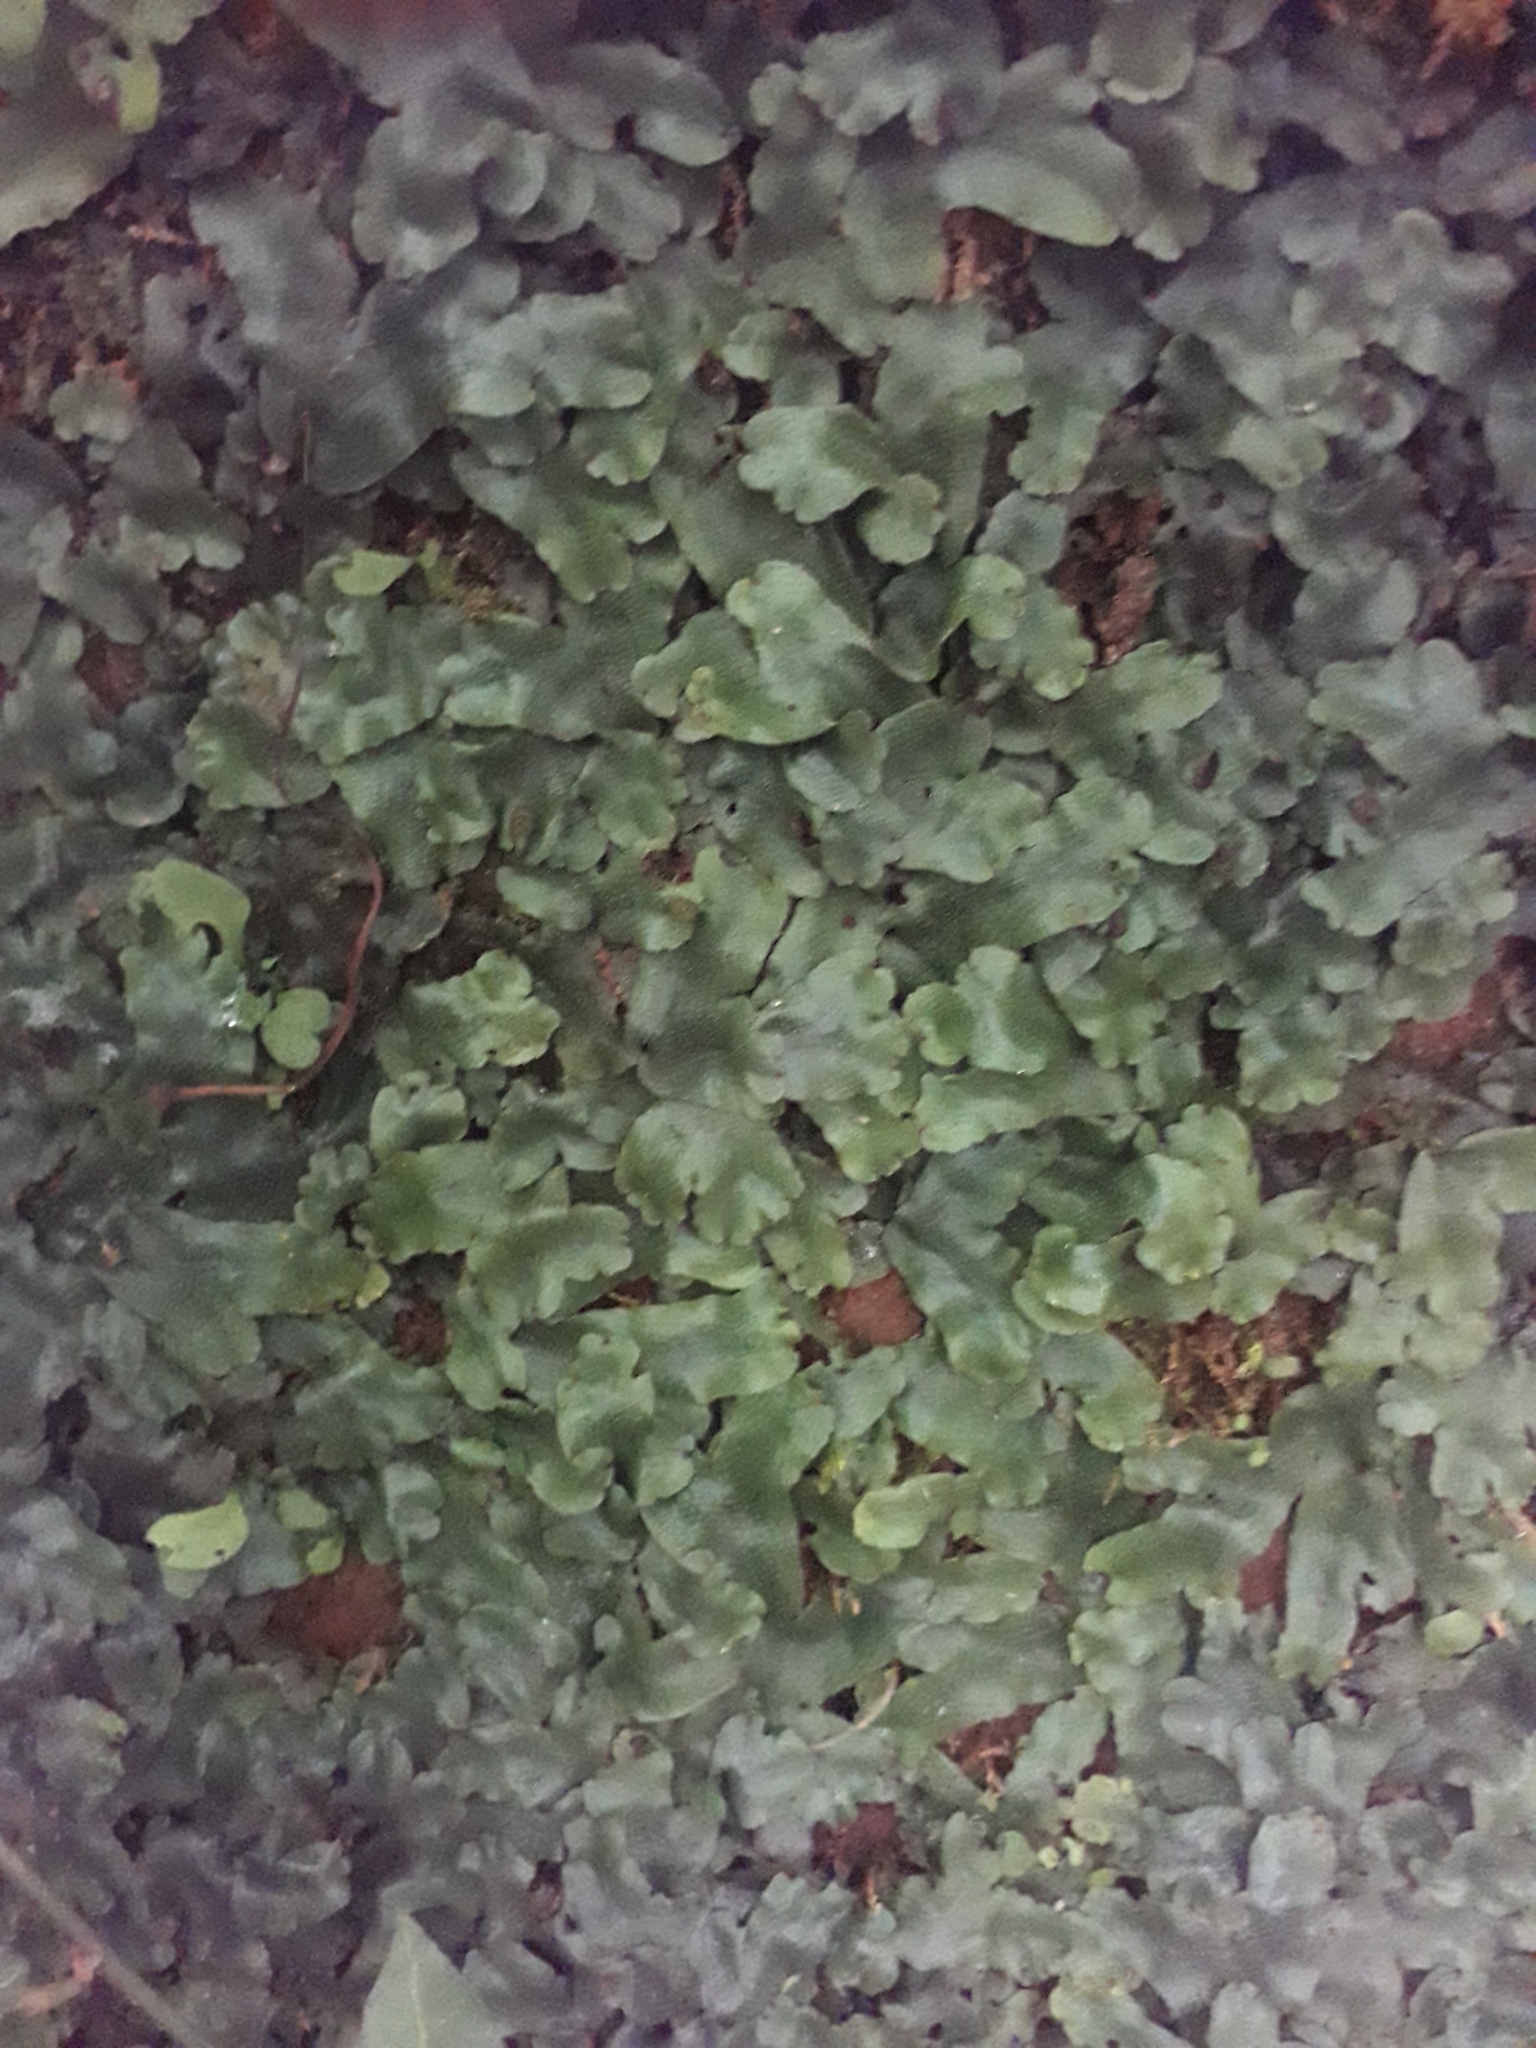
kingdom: Plantae
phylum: Marchantiophyta
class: Marchantiopsida
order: Marchantiales
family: Conocephalaceae
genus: Conocephalum
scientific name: Conocephalum conicum
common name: Great scented liverwort
